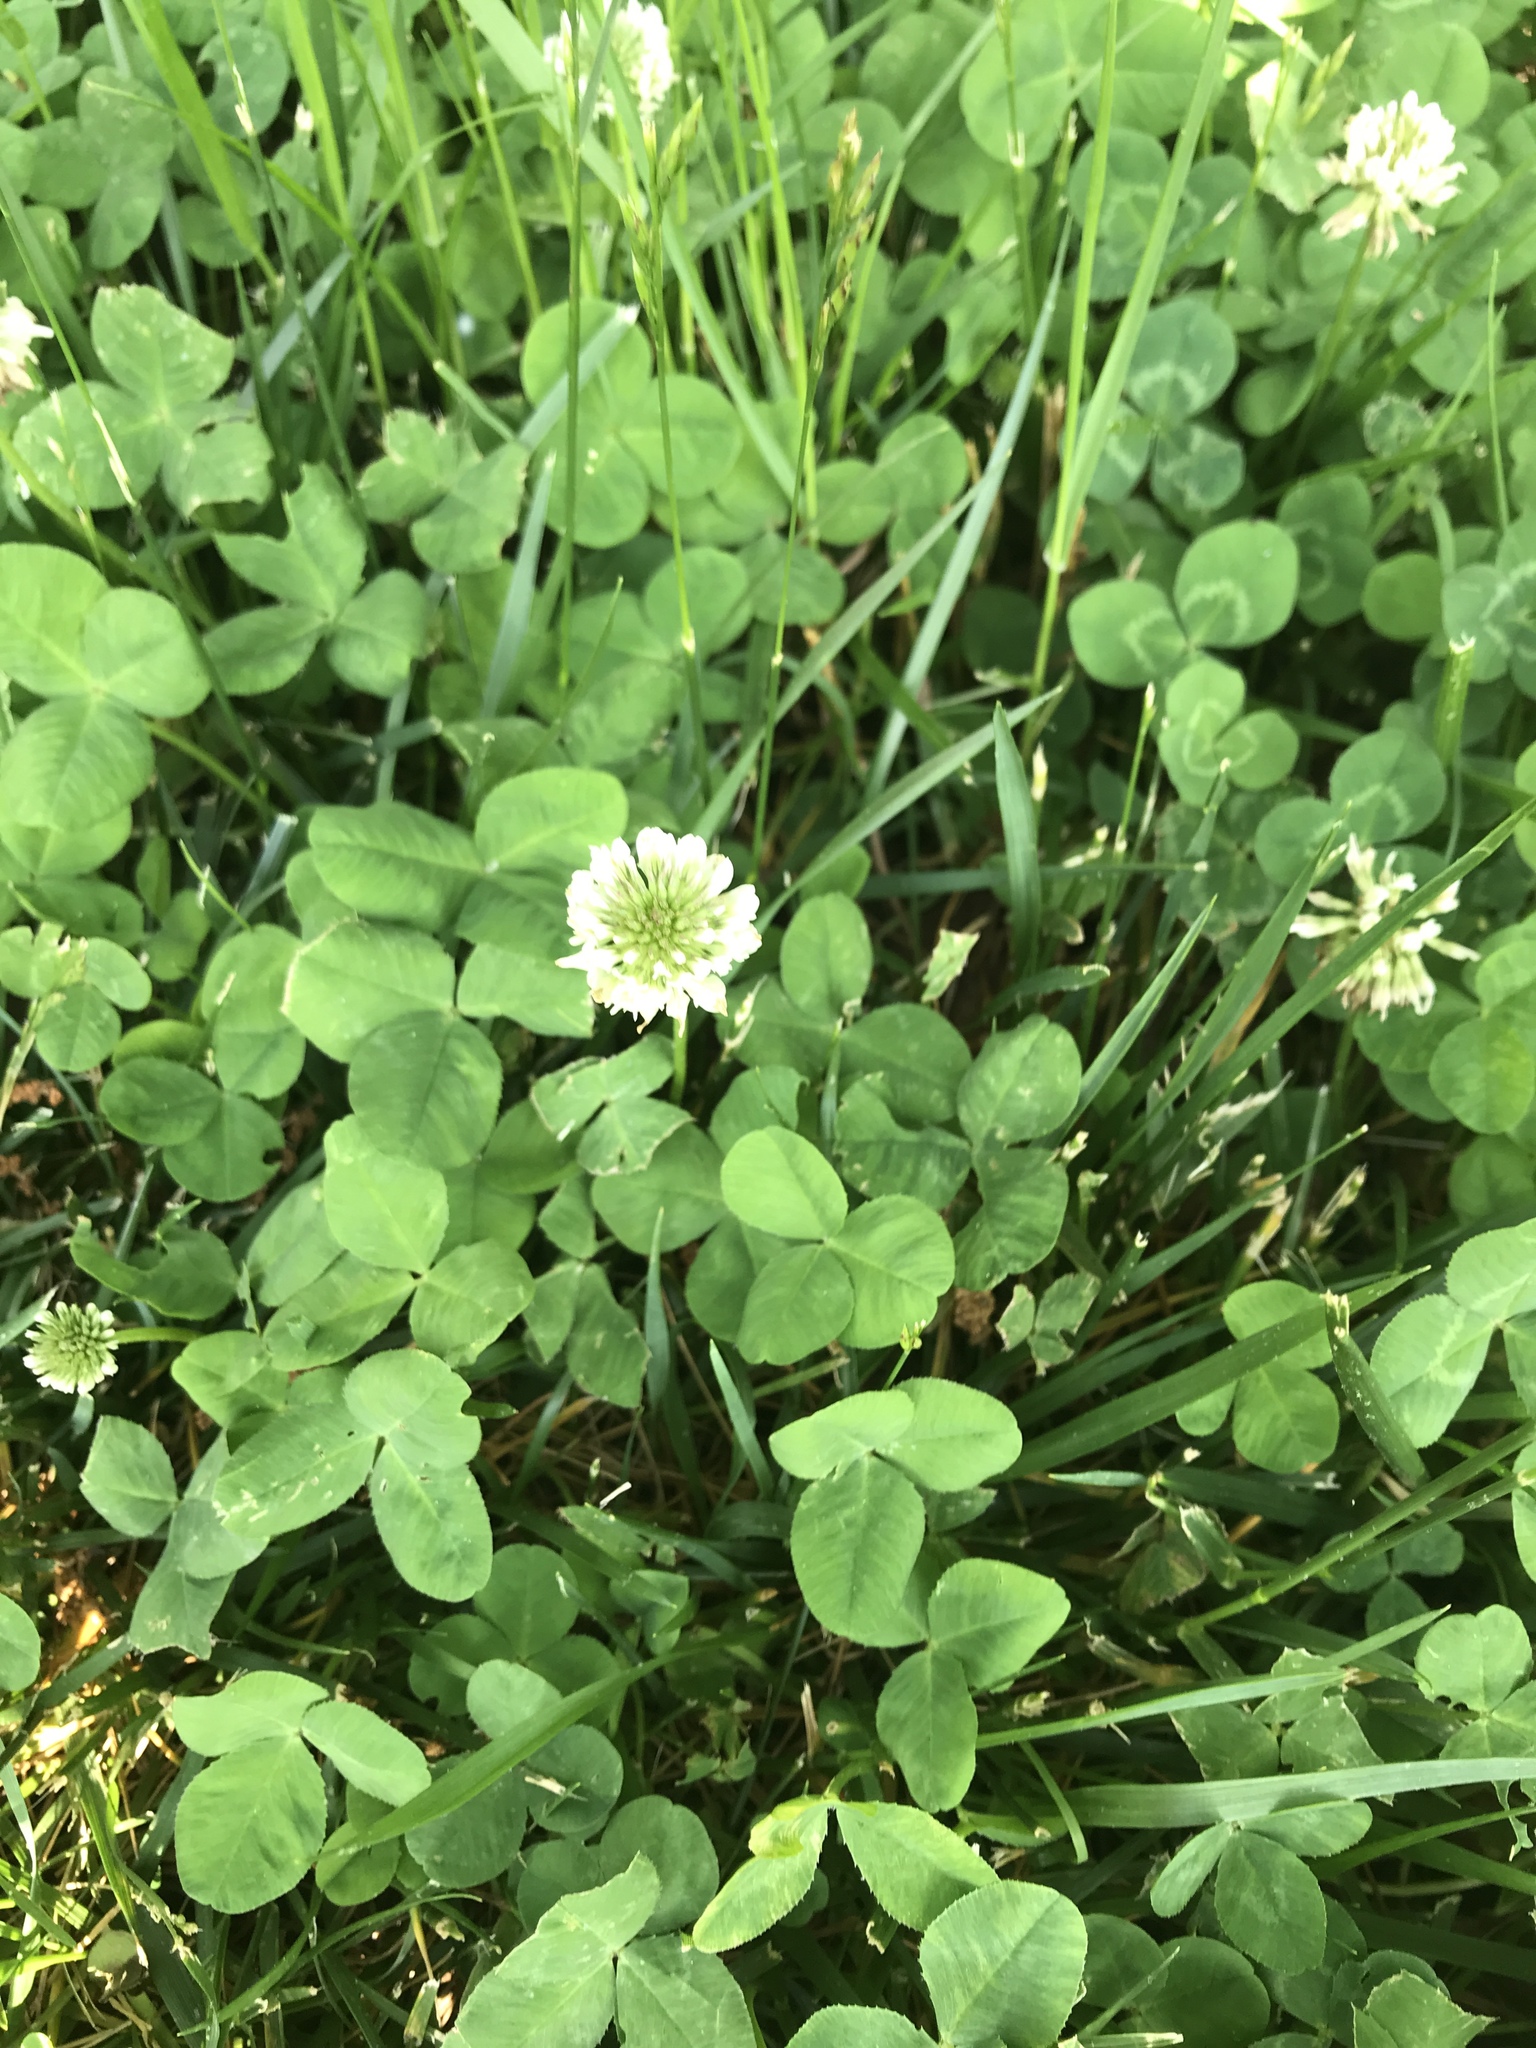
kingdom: Plantae
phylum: Tracheophyta
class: Magnoliopsida
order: Fabales
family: Fabaceae
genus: Trifolium
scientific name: Trifolium repens
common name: White clover
